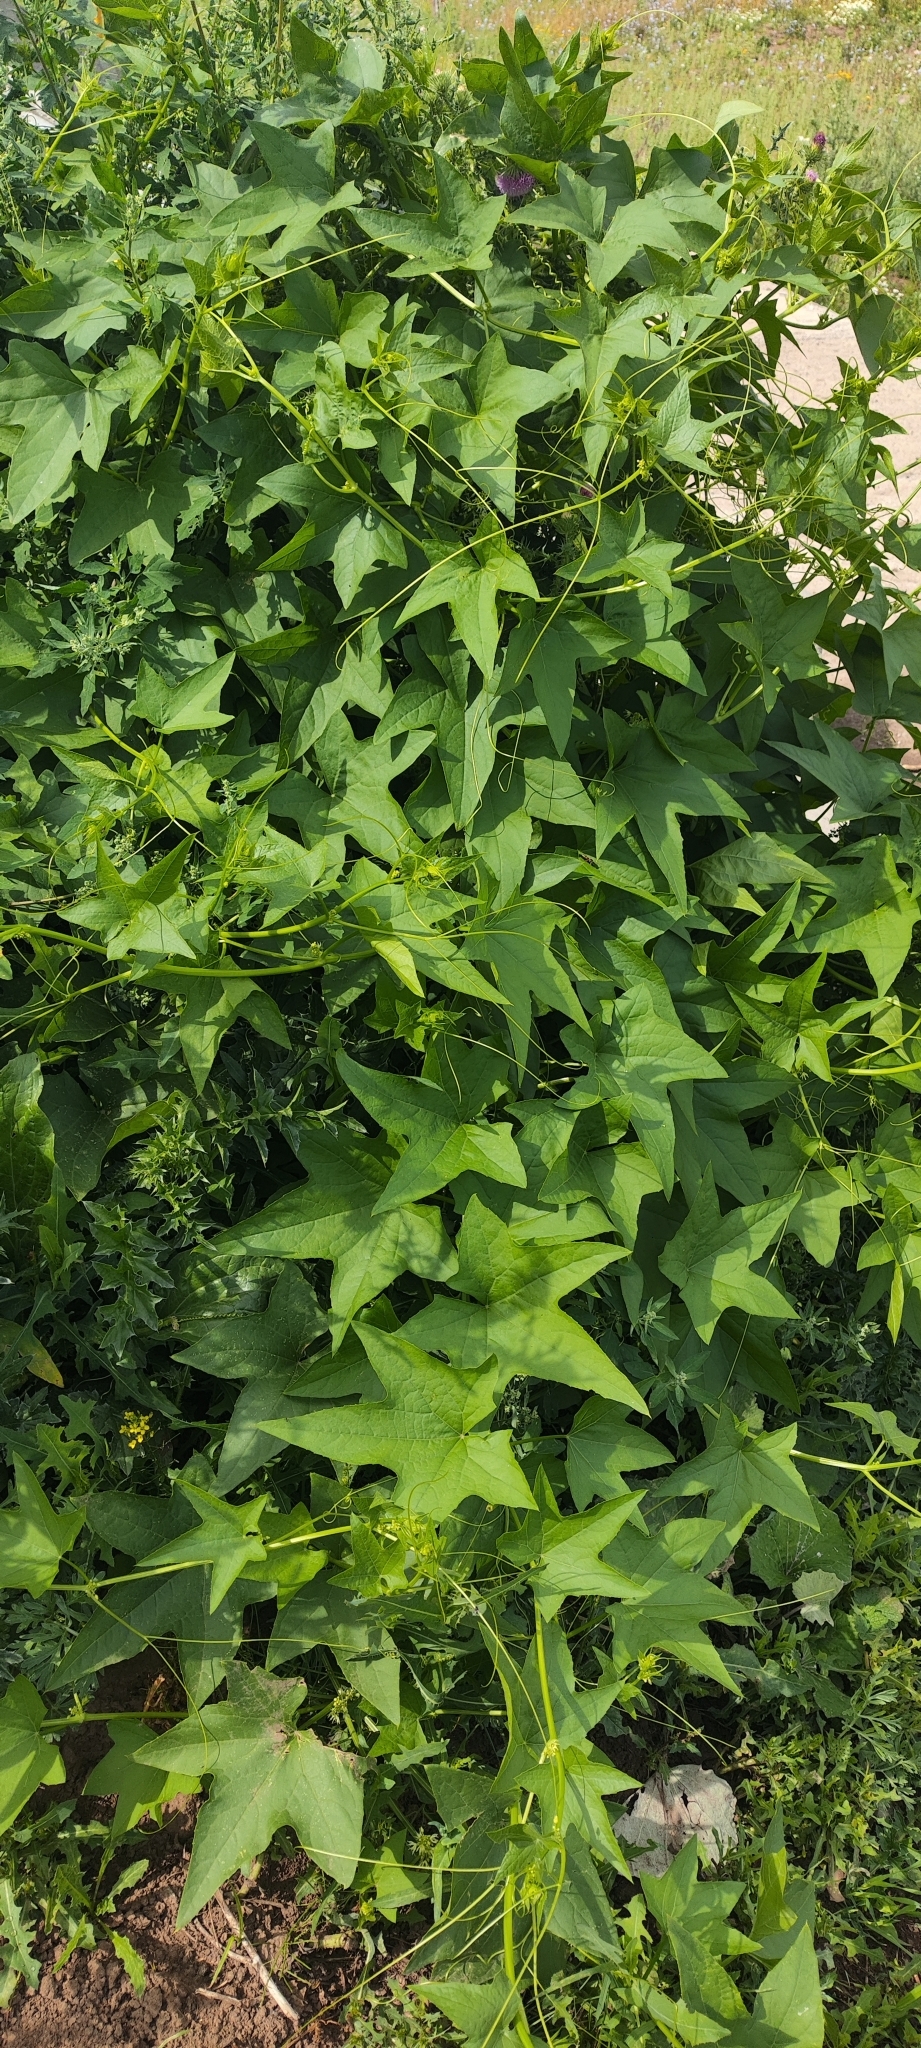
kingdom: Plantae
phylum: Tracheophyta
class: Magnoliopsida
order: Cucurbitales
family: Cucurbitaceae
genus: Echinocystis
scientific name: Echinocystis lobata
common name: Wild cucumber
